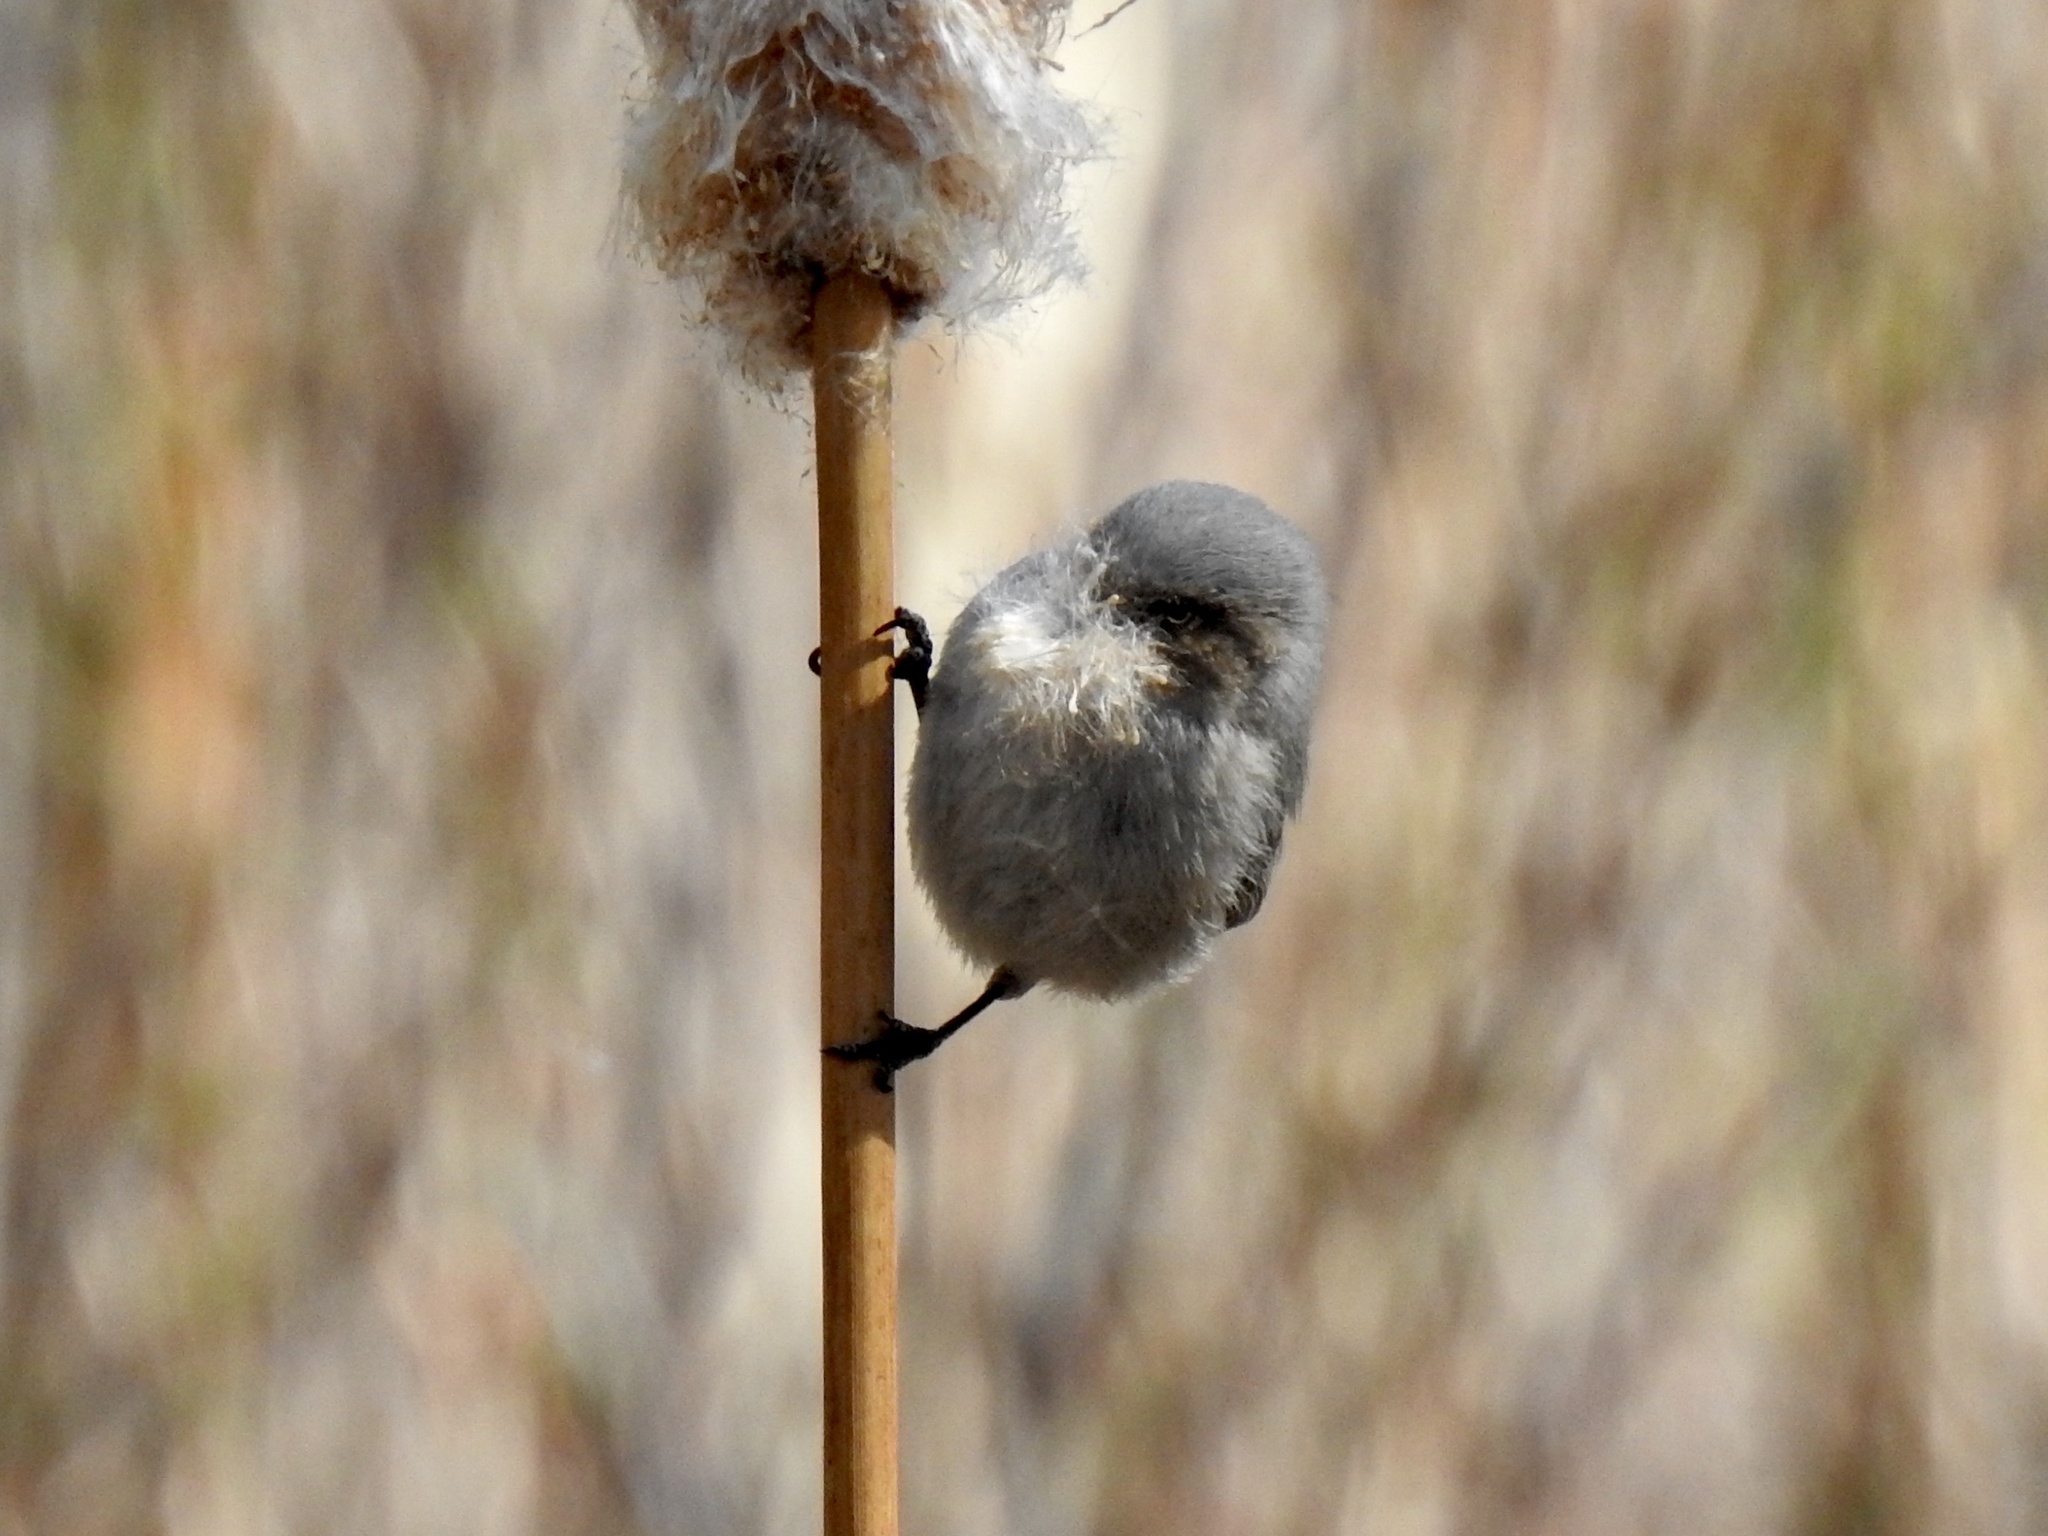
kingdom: Animalia
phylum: Chordata
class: Aves
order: Passeriformes
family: Aegithalidae
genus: Psaltriparus
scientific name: Psaltriparus minimus
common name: American bushtit
